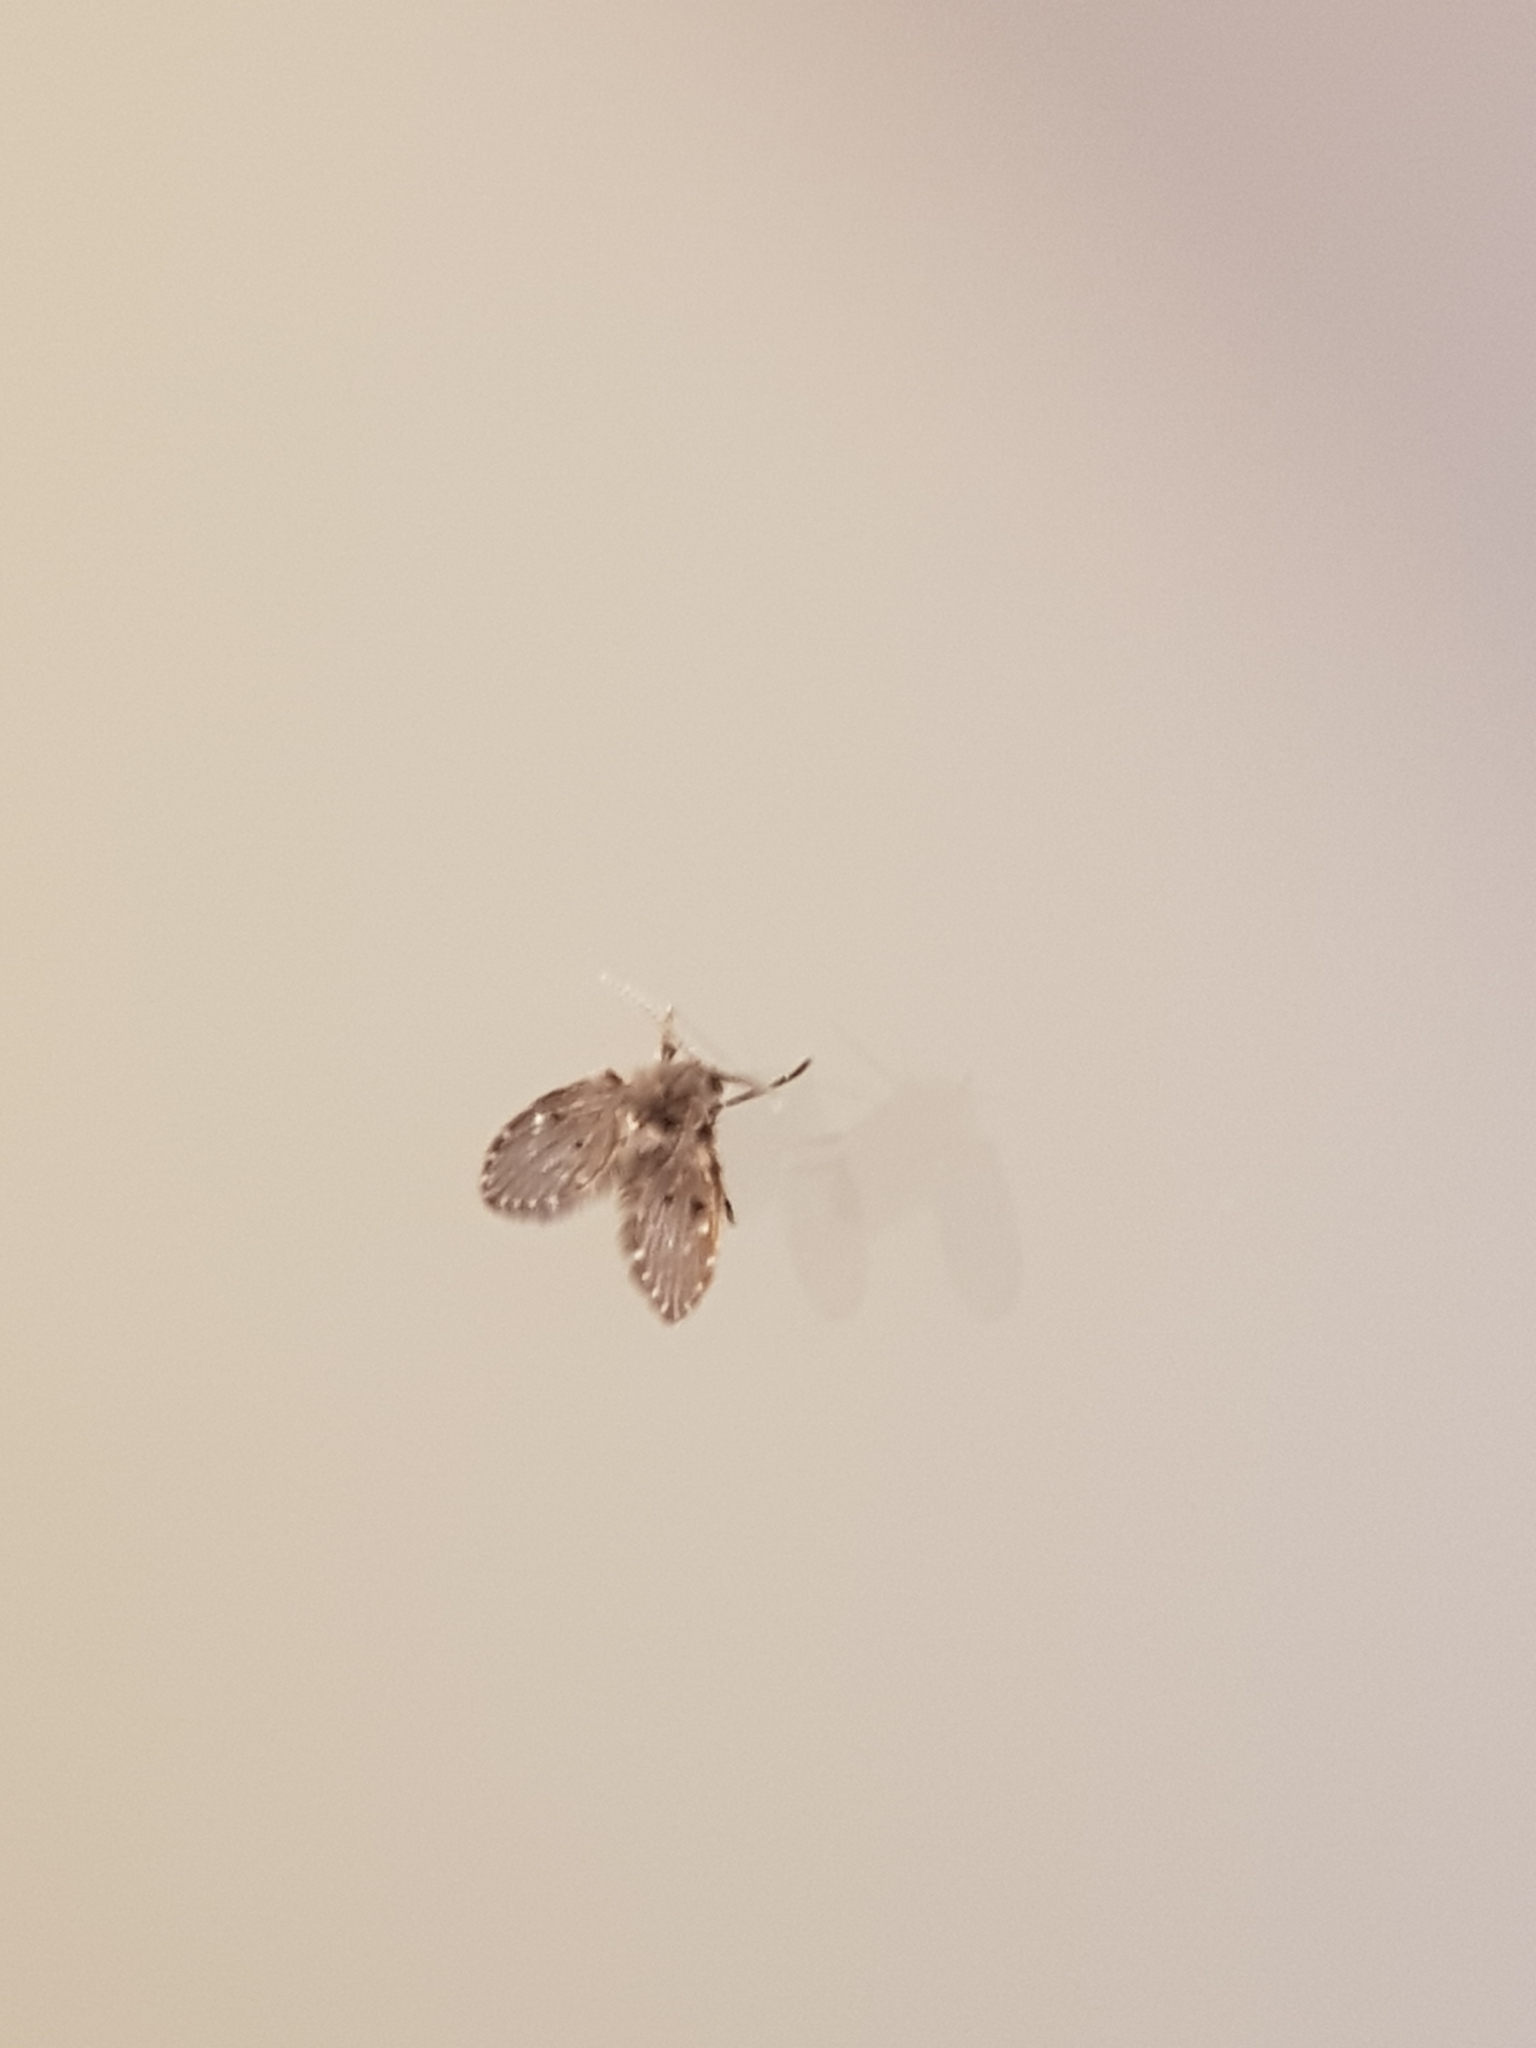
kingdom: Animalia
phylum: Arthropoda
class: Insecta
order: Diptera
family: Psychodidae
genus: Clogmia
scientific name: Clogmia albipunctatus
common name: White-spotted moth fly
